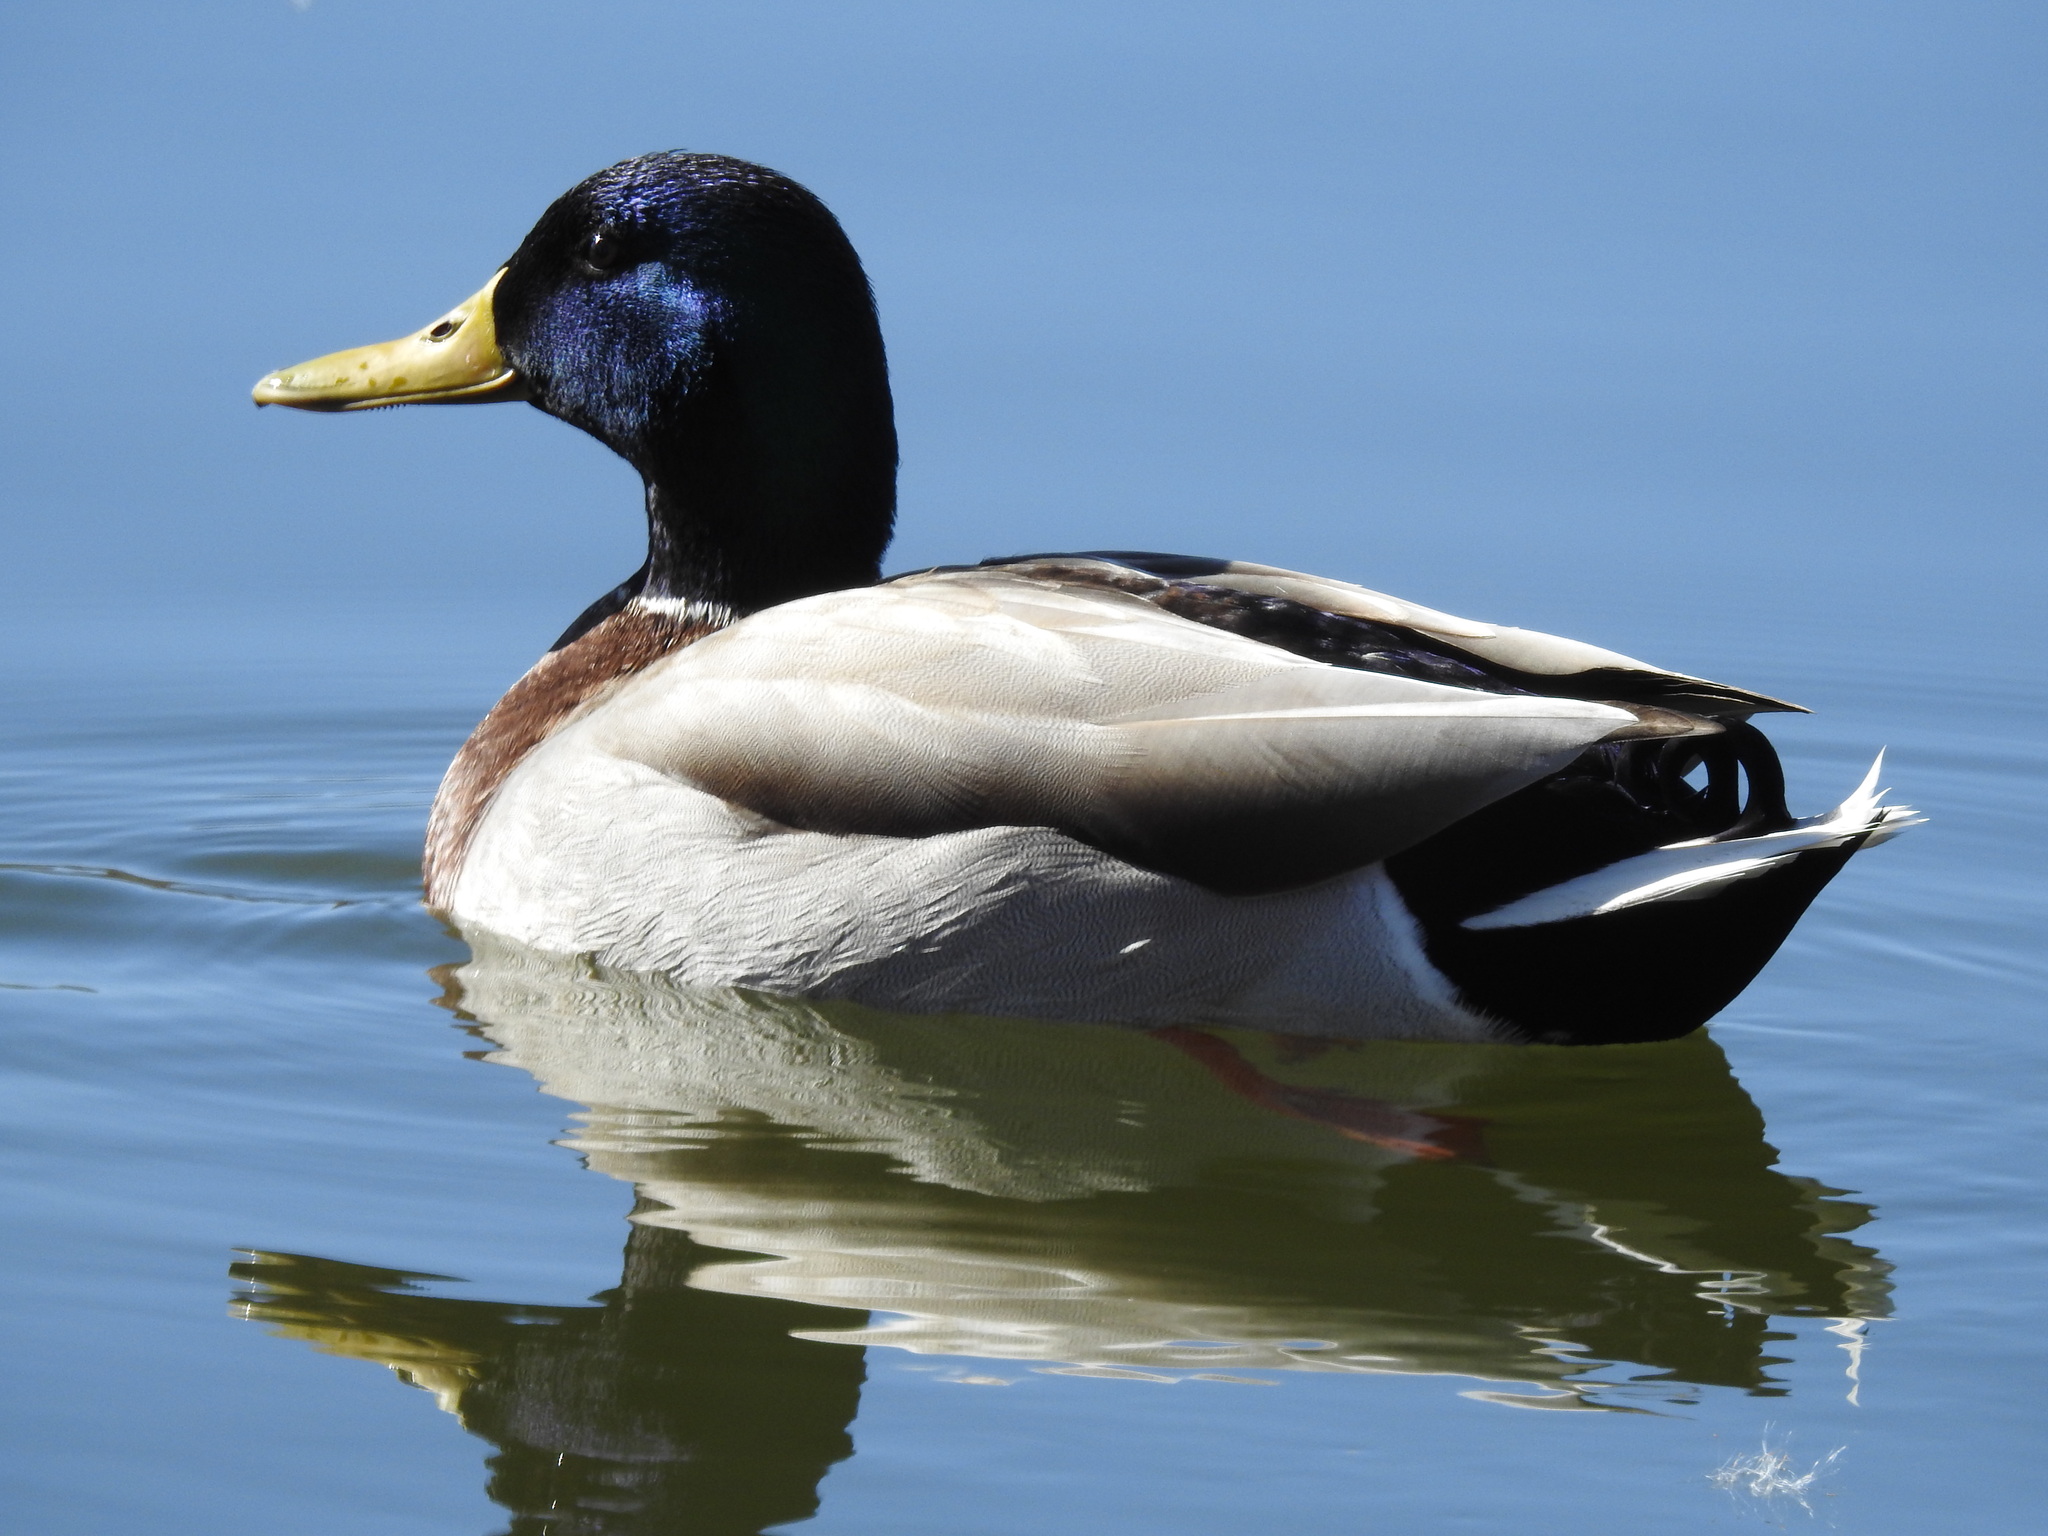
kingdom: Animalia
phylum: Chordata
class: Aves
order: Anseriformes
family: Anatidae
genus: Anas
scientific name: Anas platyrhynchos
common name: Mallard
